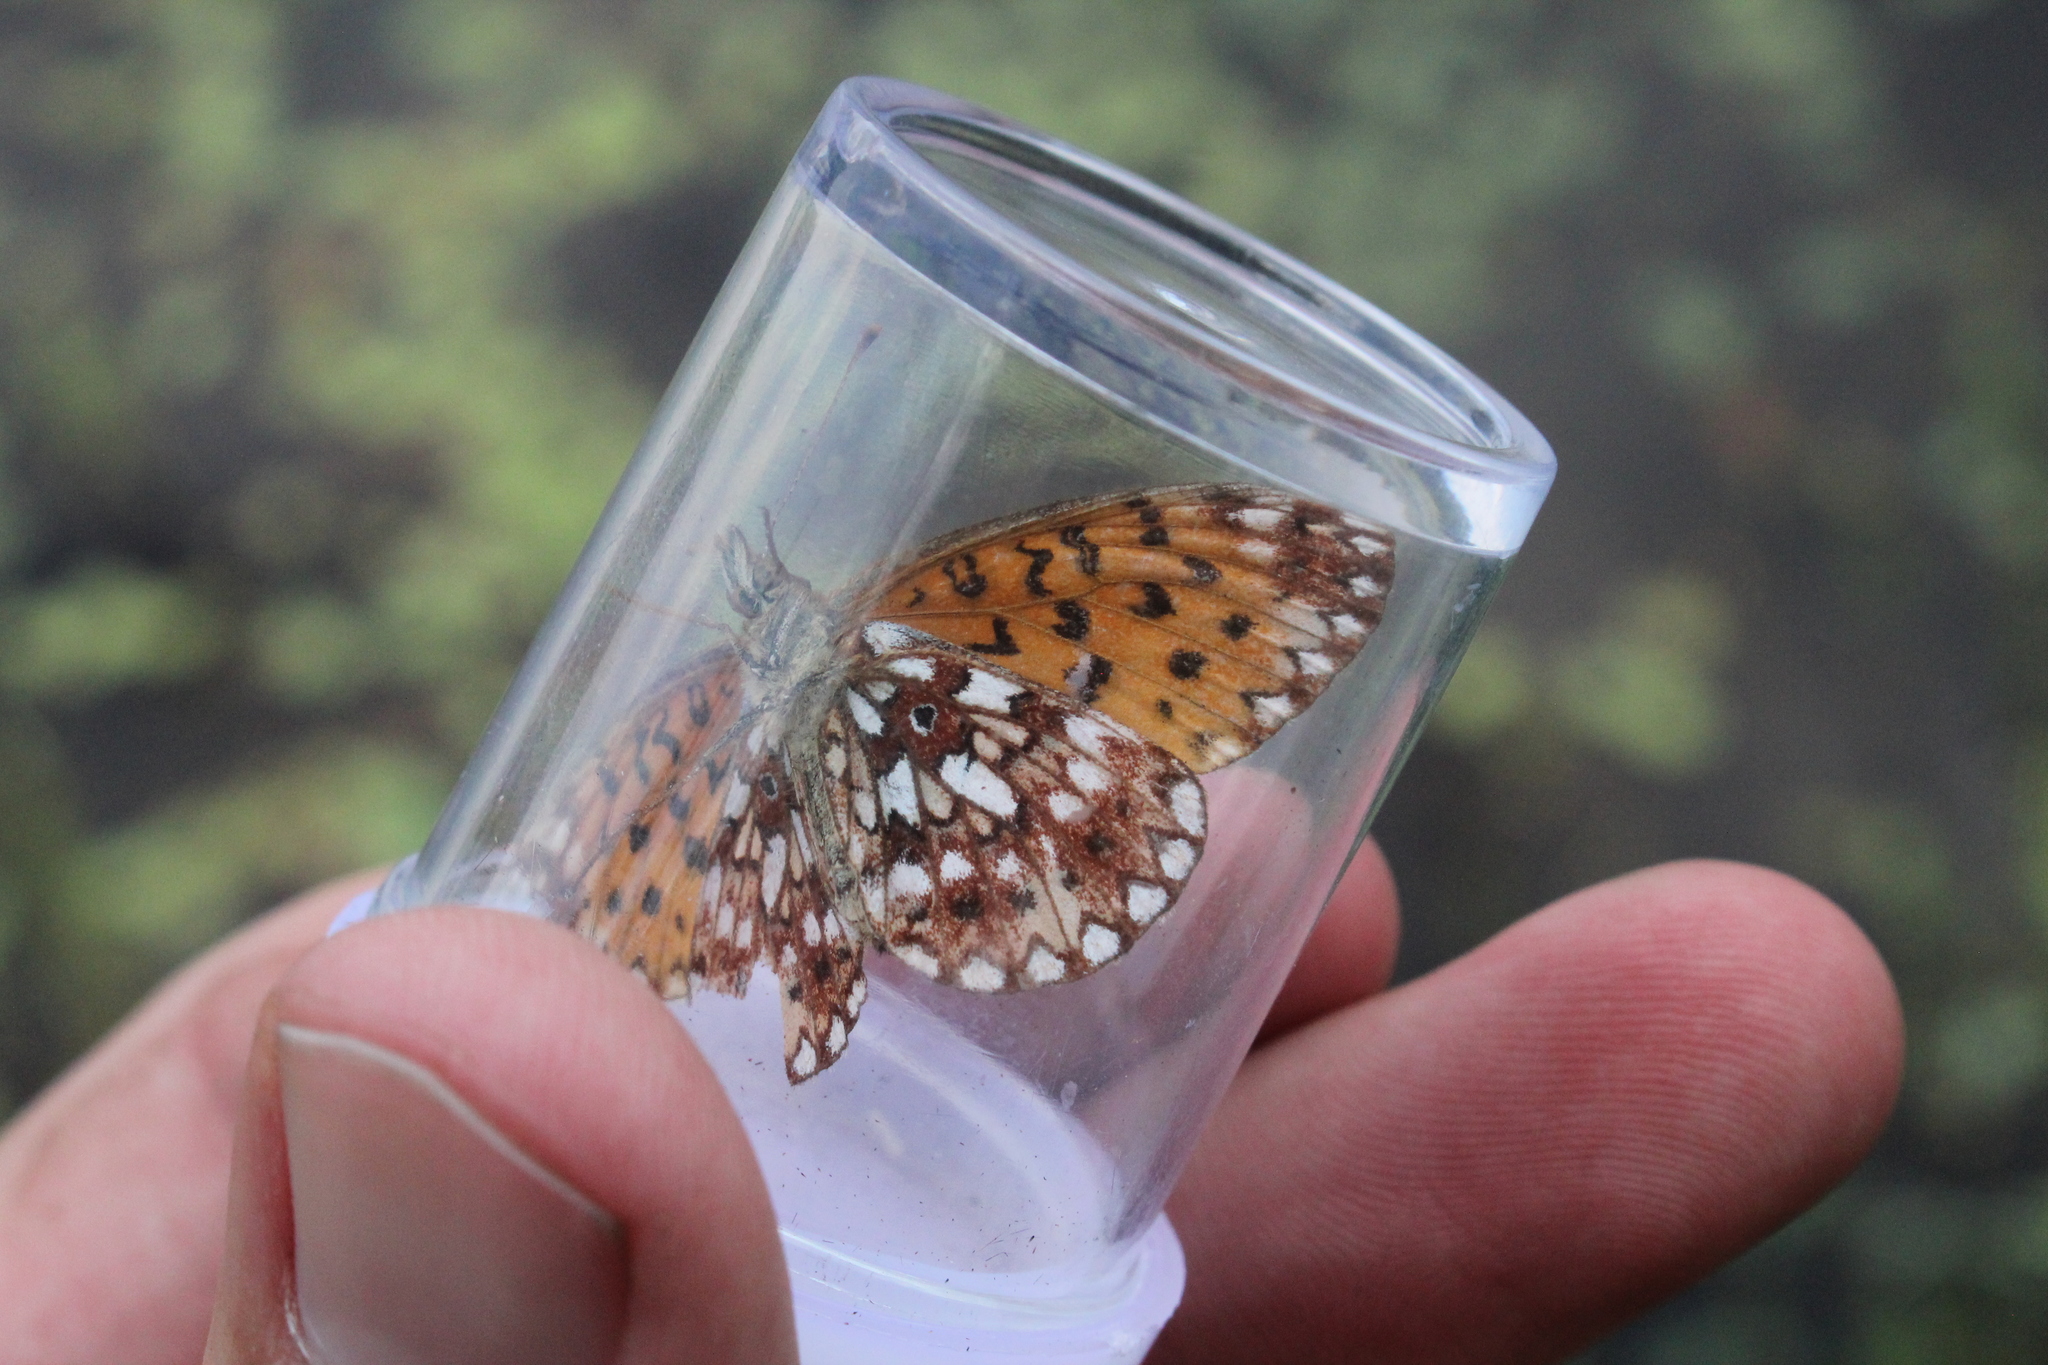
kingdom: Animalia
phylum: Arthropoda
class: Insecta
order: Lepidoptera
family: Nymphalidae
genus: Boloria
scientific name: Boloria
